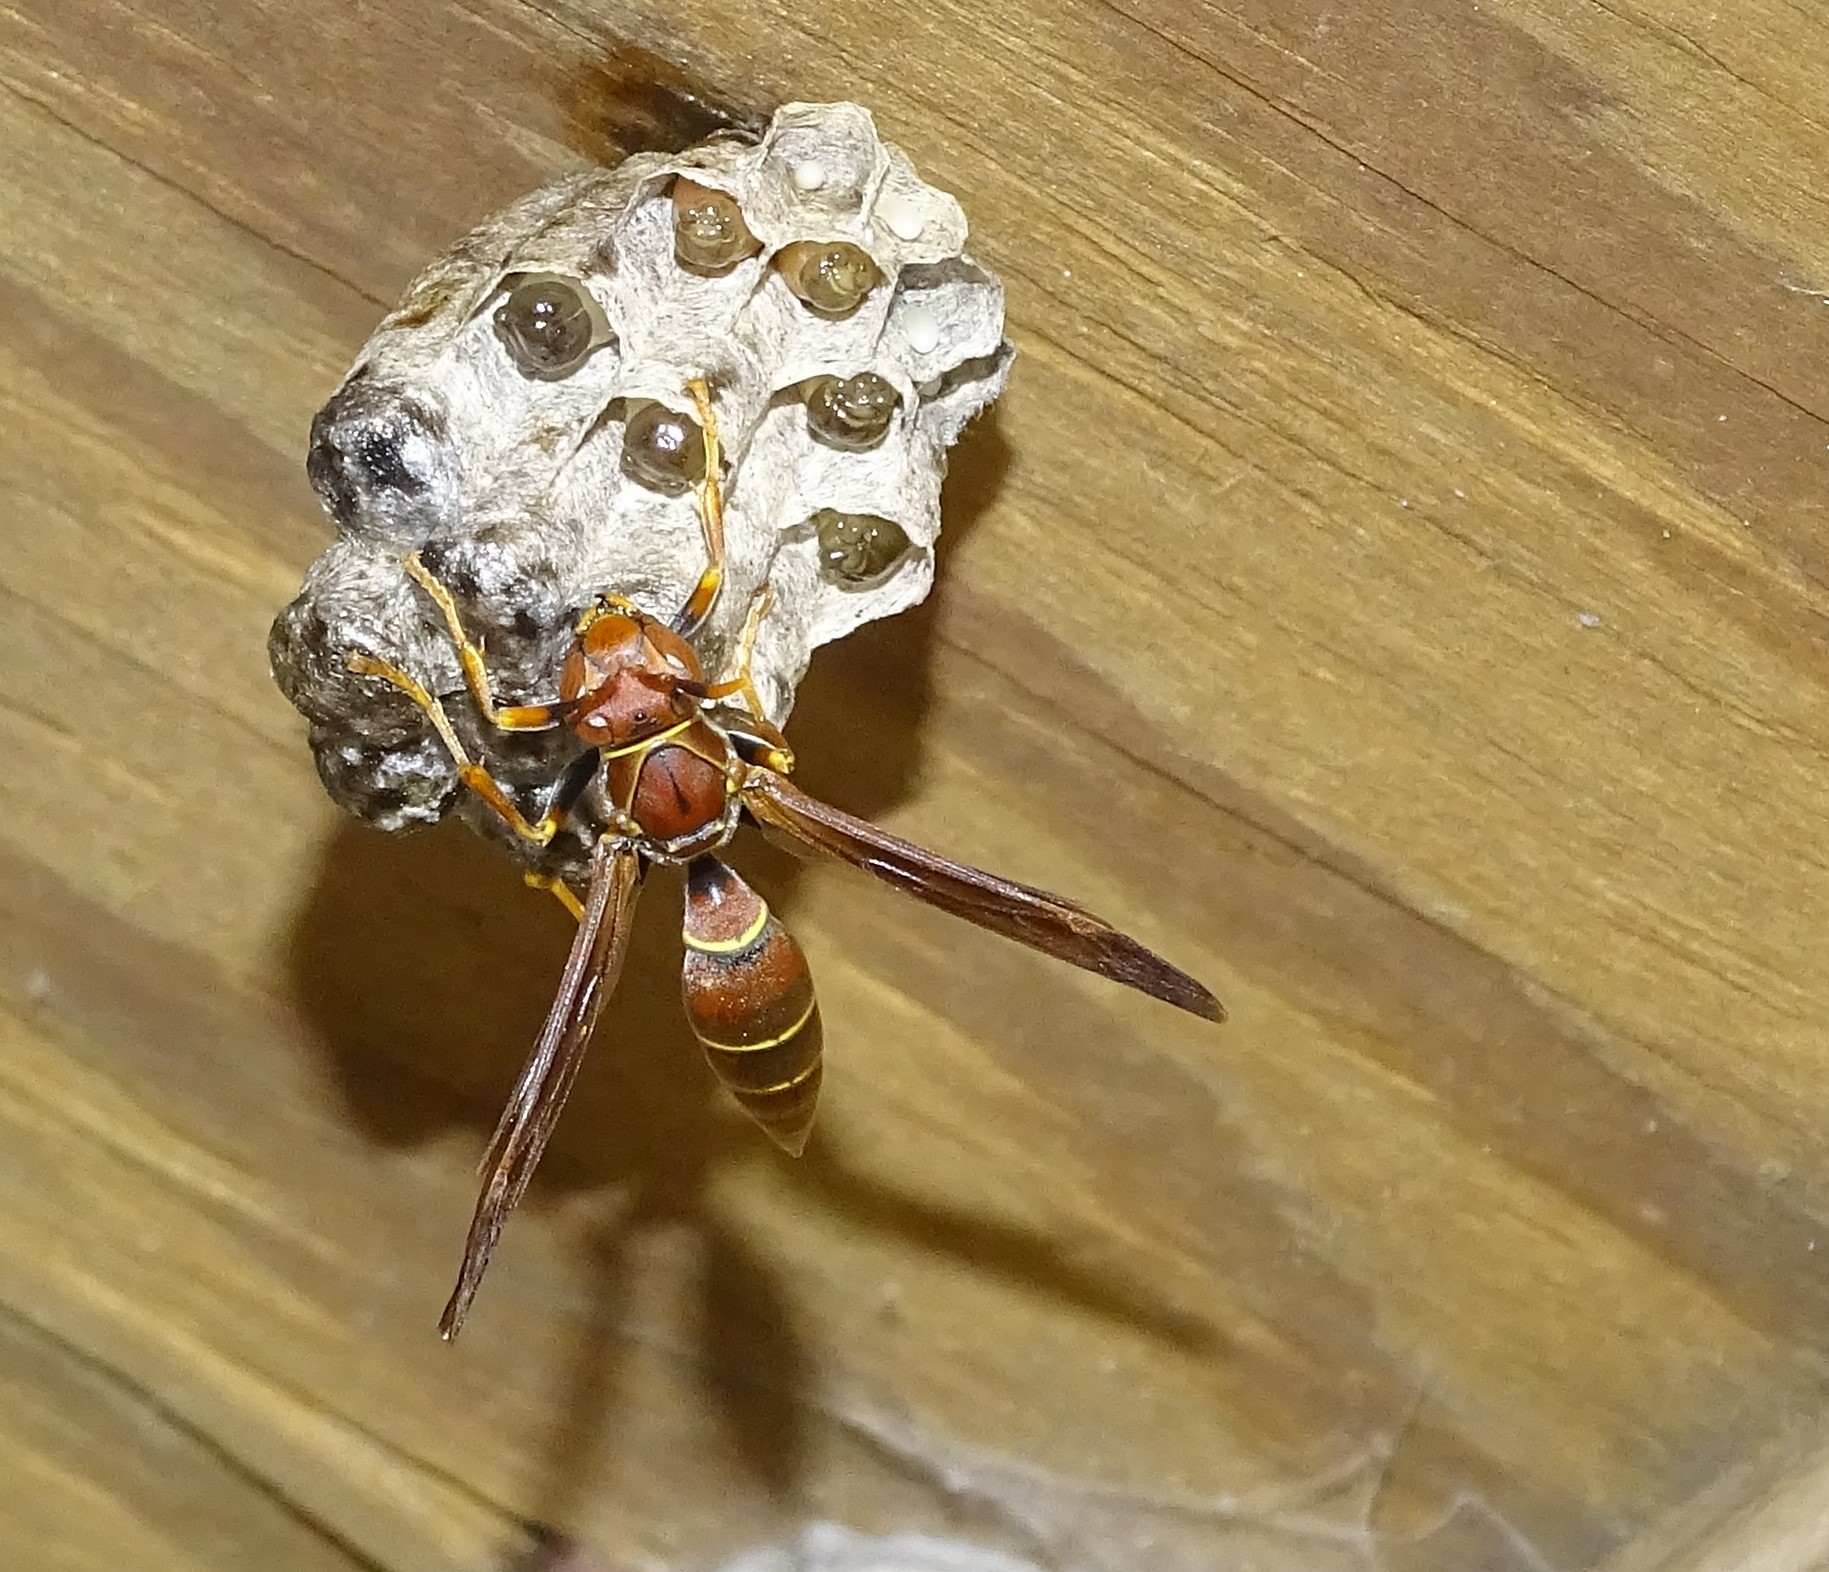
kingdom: Animalia
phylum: Arthropoda
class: Insecta
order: Hymenoptera
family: Eumenidae
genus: Polistes
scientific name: Polistes bahamensis
